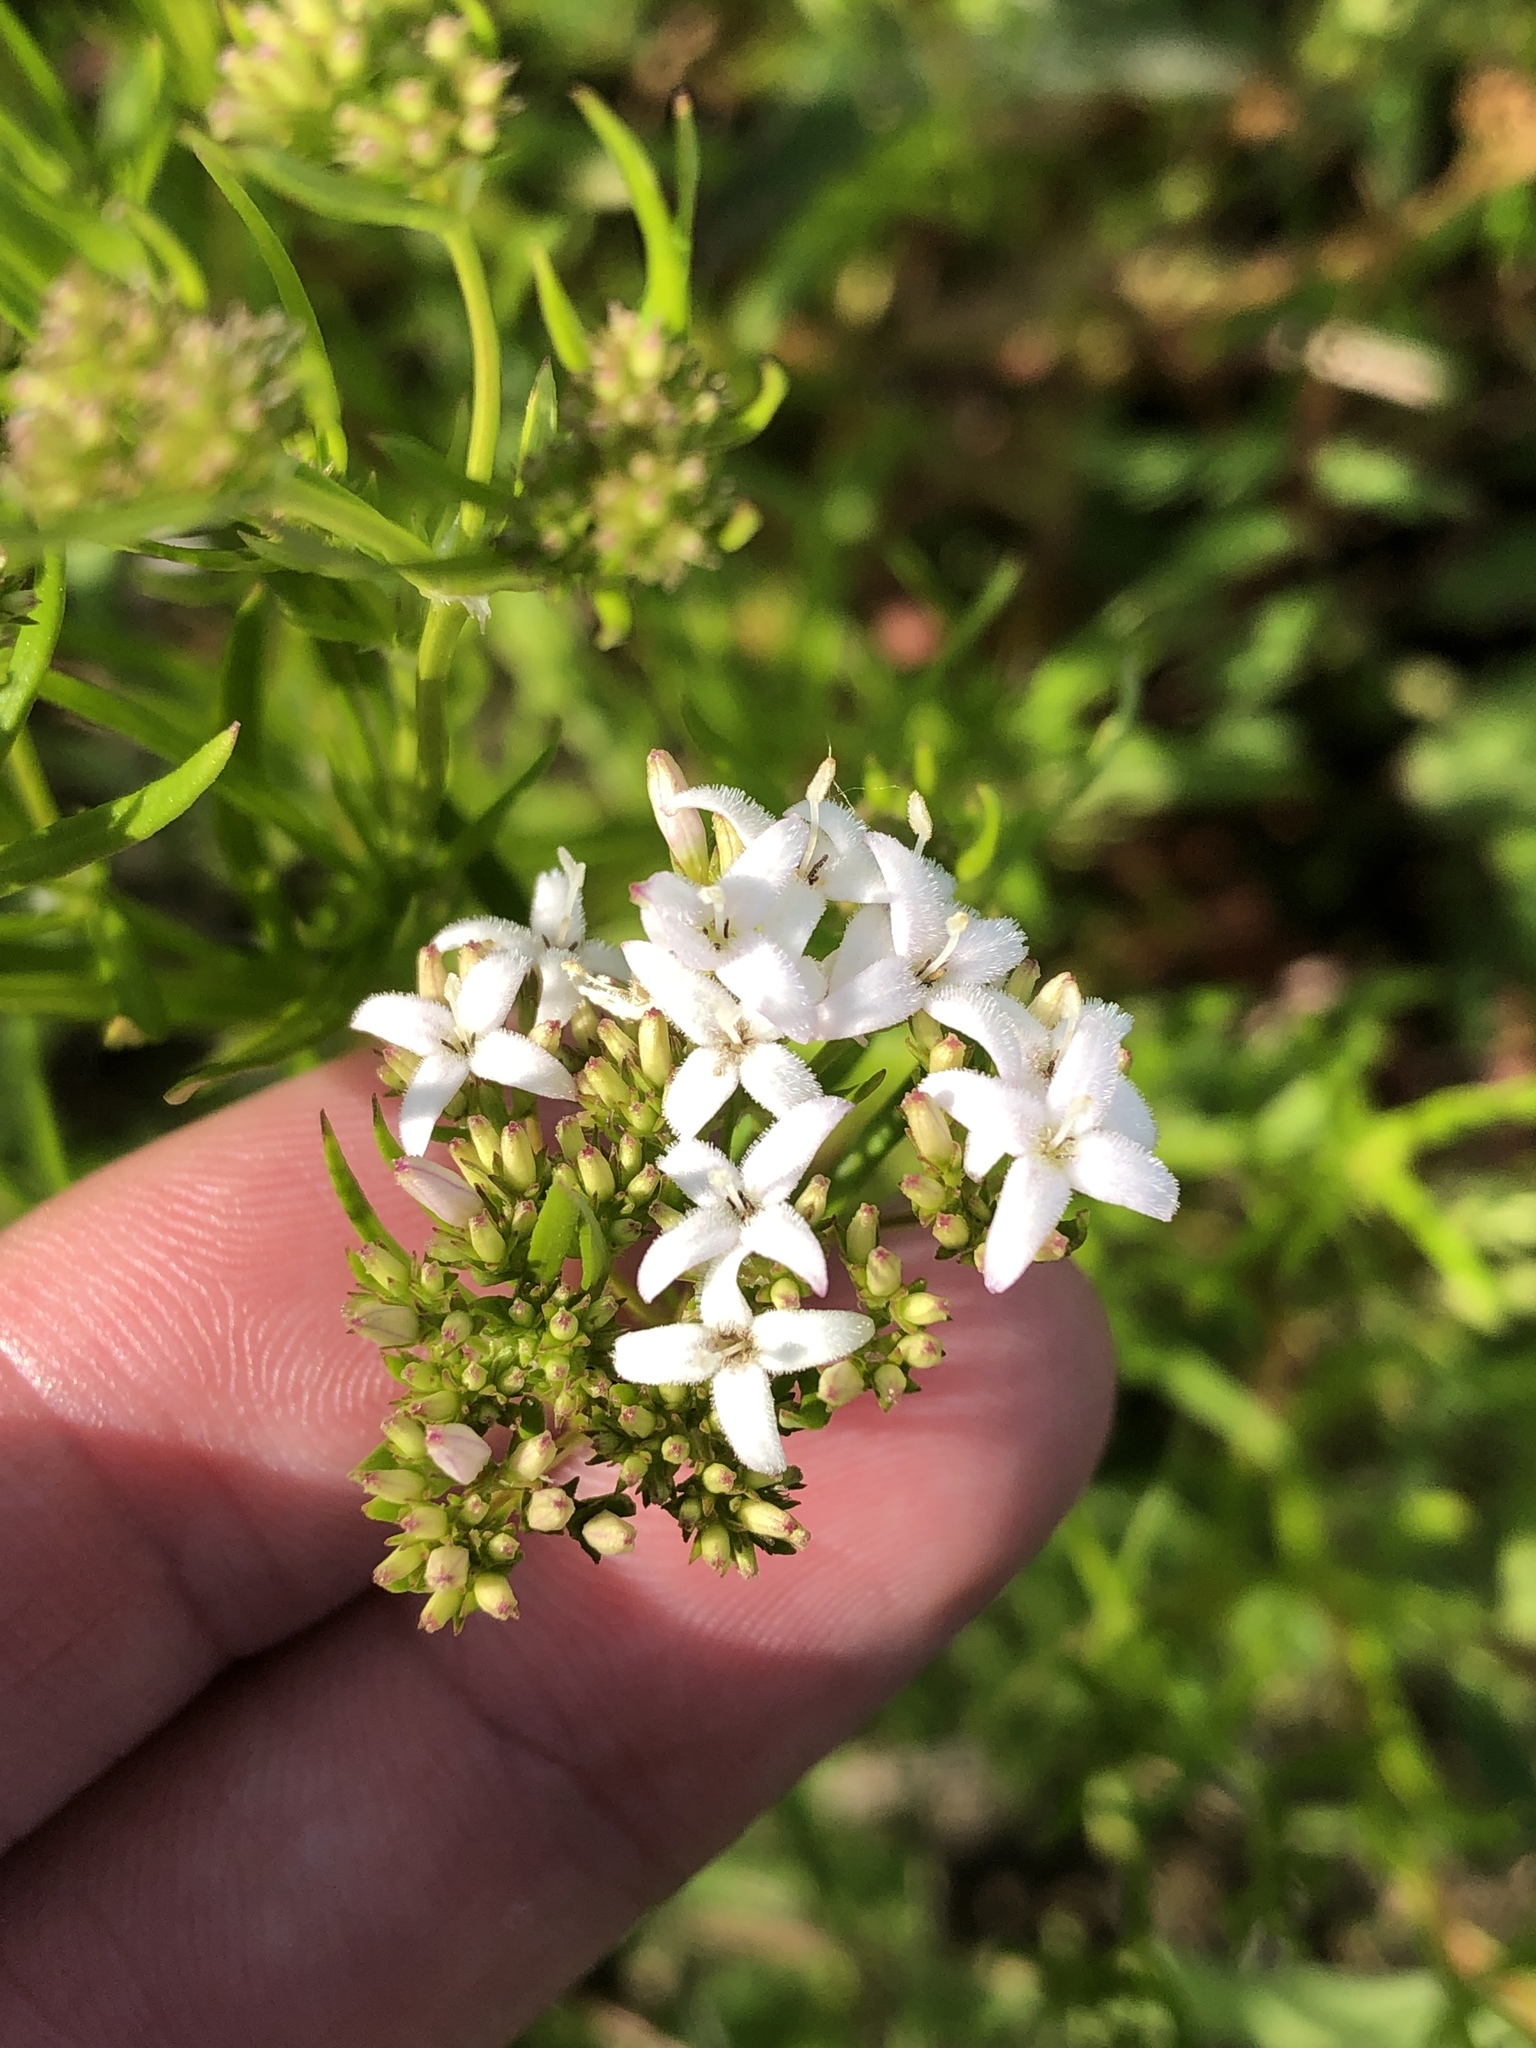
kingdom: Plantae
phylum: Tracheophyta
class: Magnoliopsida
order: Gentianales
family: Rubiaceae
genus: Stenaria
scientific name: Stenaria nigricans
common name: Diamondflowers
